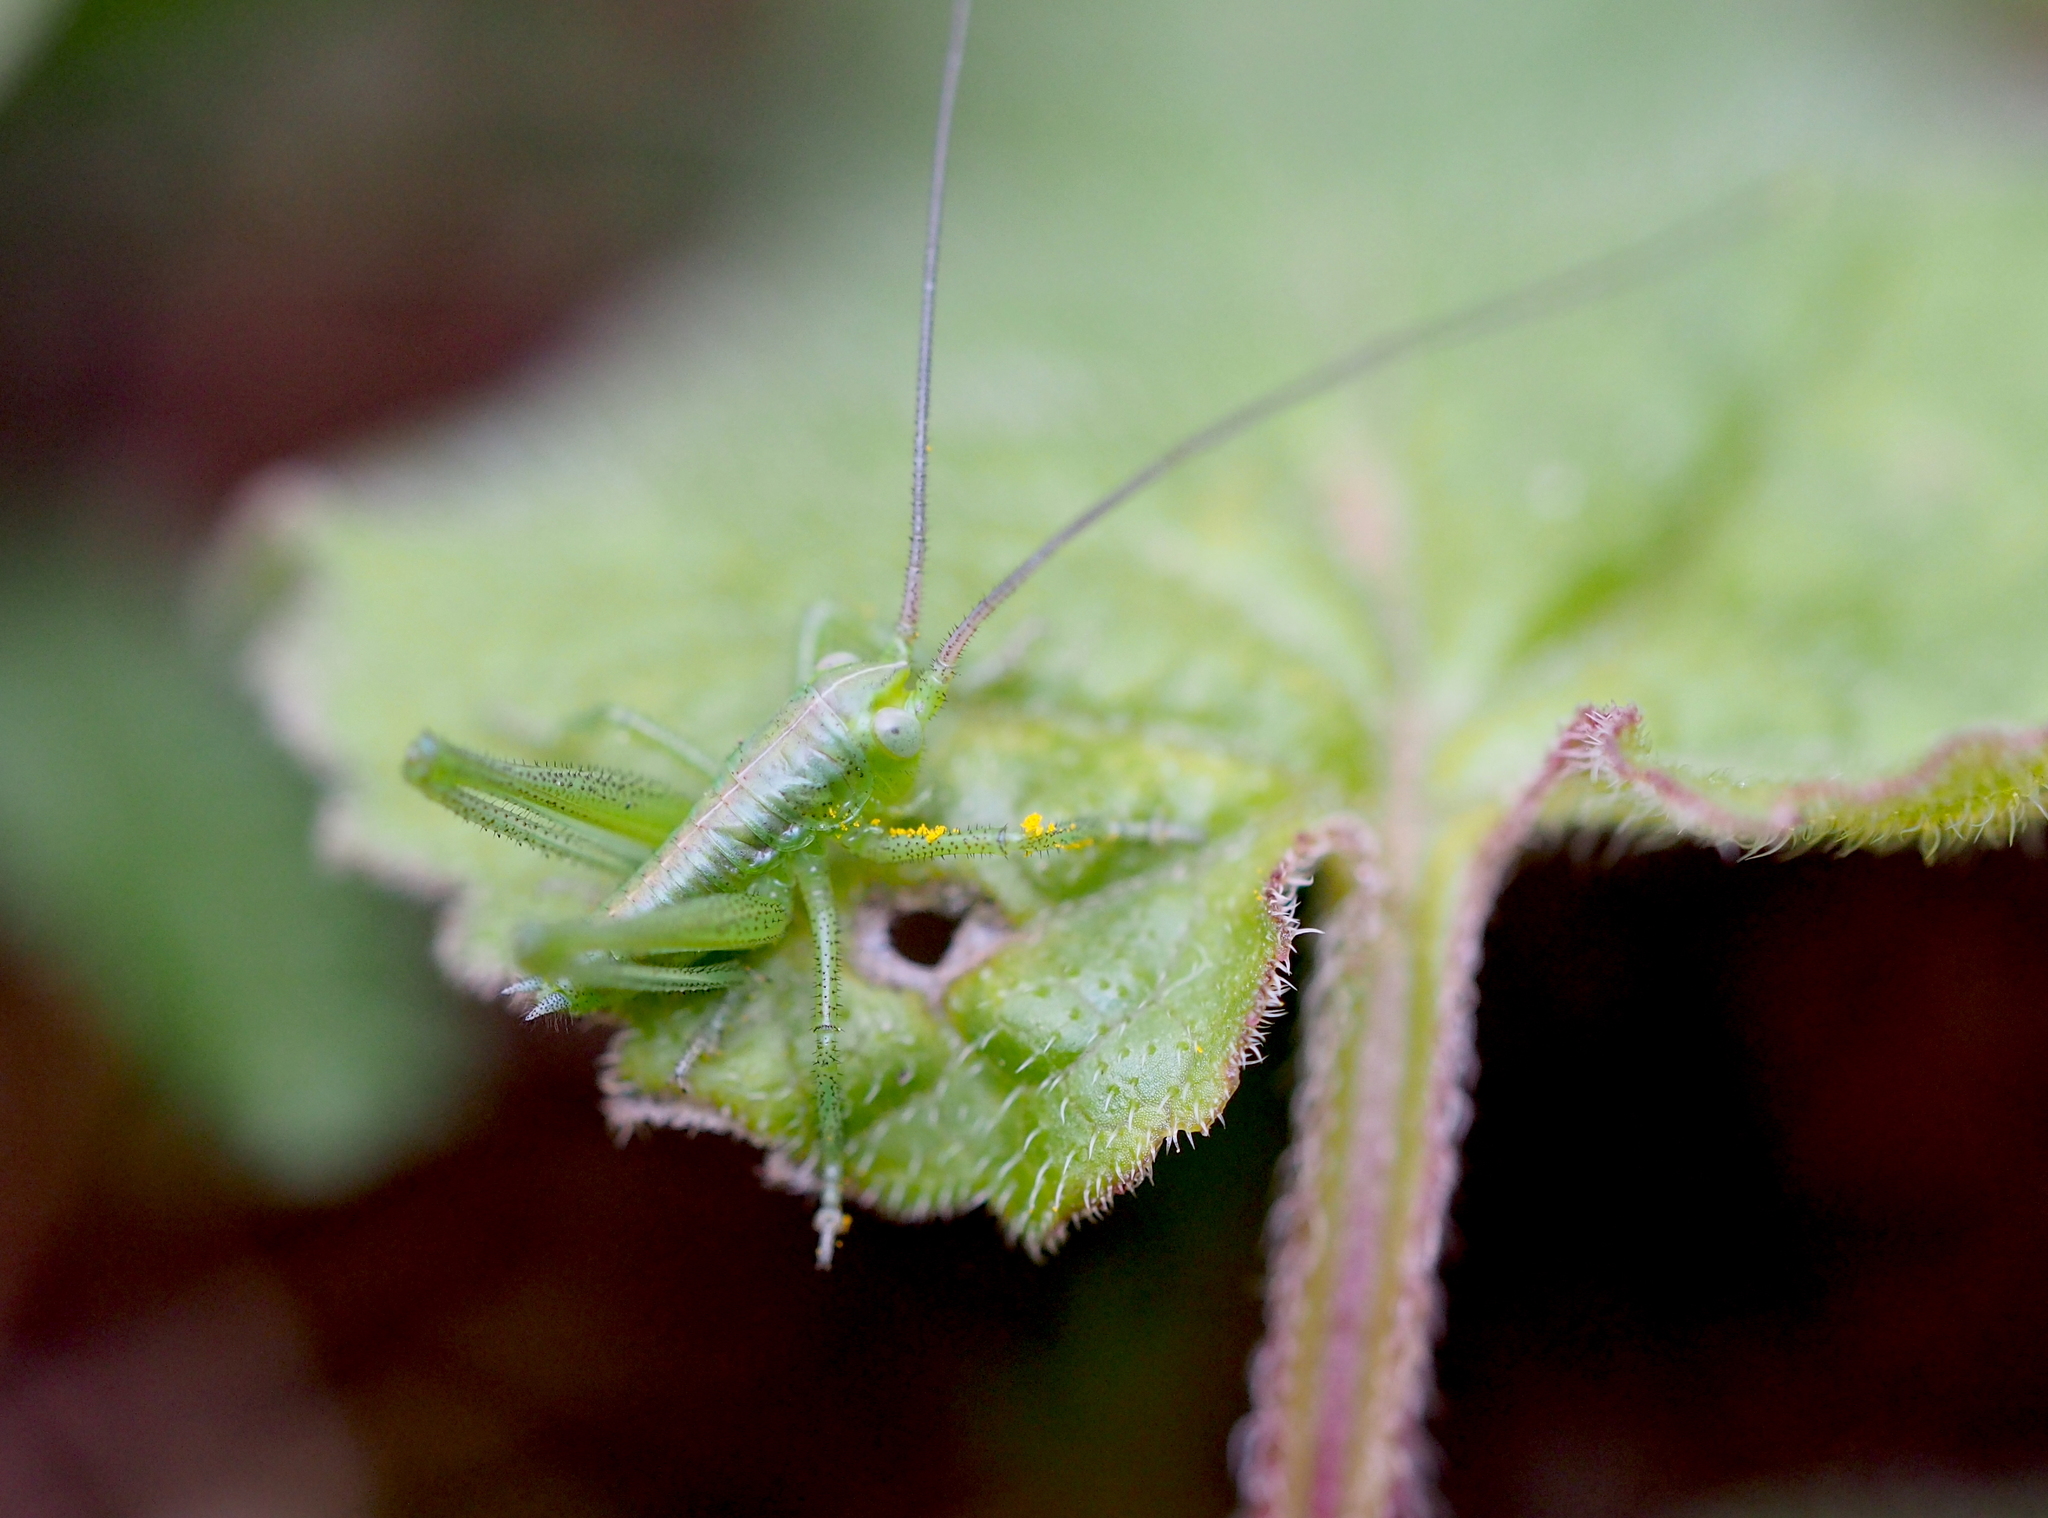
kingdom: Animalia
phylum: Arthropoda
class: Insecta
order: Orthoptera
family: Tettigoniidae
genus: Tettigonia
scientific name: Tettigonia viridissima
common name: Great green bush-cricket
